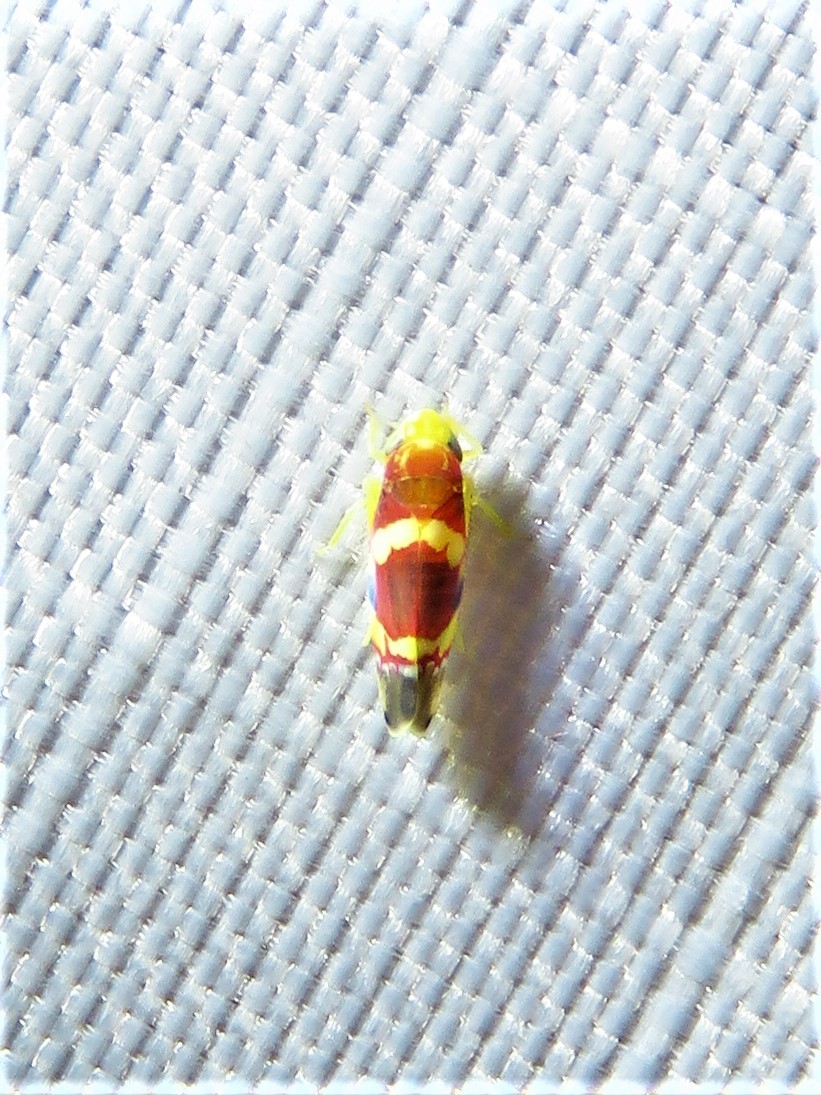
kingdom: Animalia
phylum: Arthropoda
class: Insecta
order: Hemiptera
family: Cicadellidae
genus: Erythroneura
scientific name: Erythroneura vitis
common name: Grapevine leafhopper
